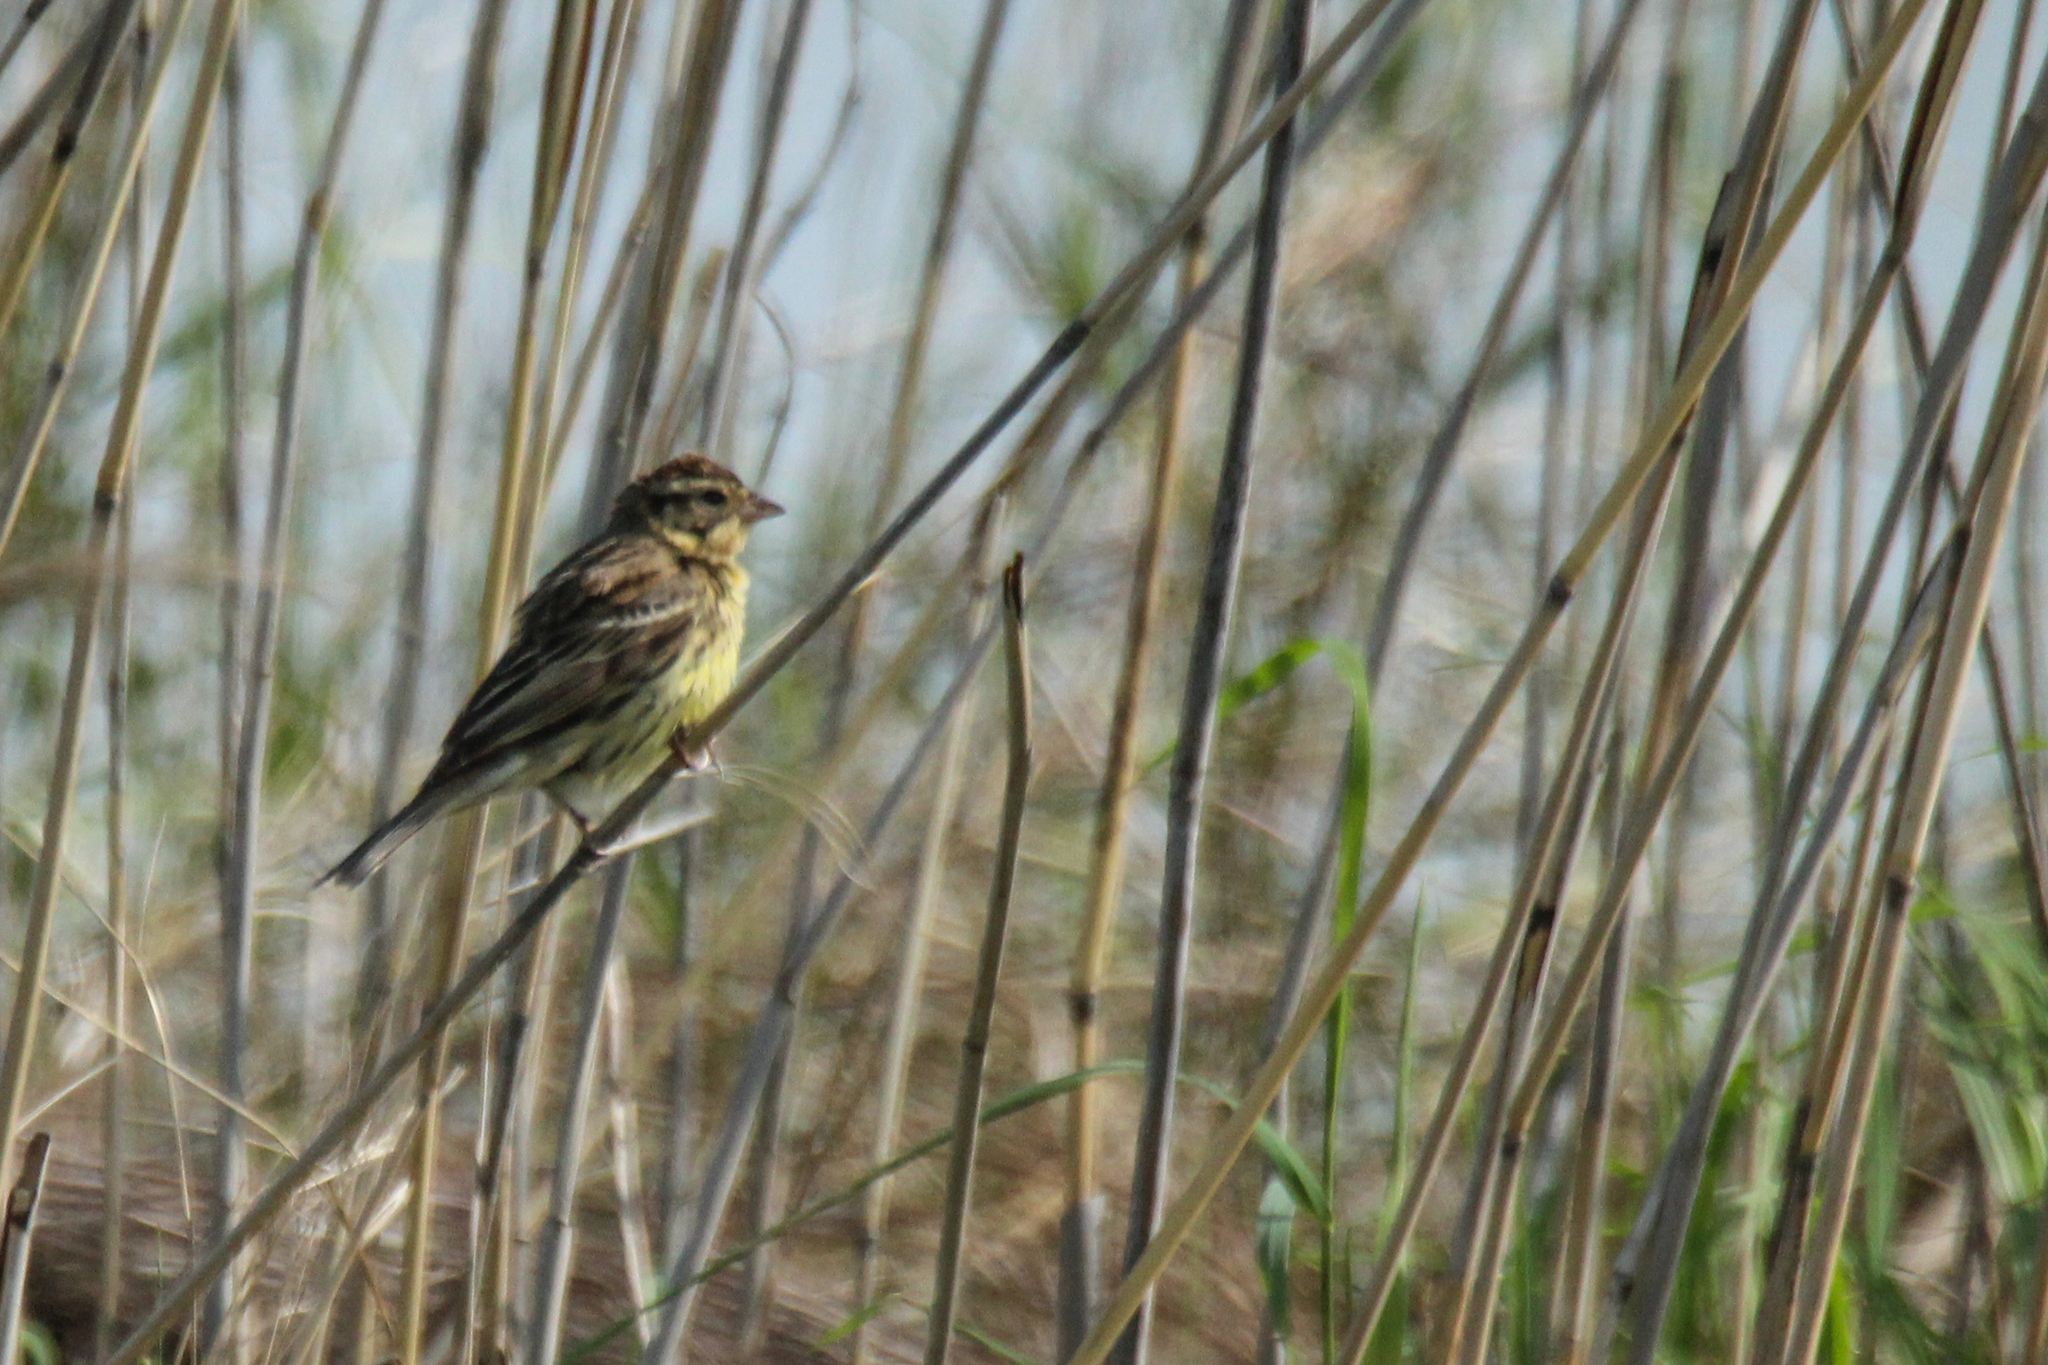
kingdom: Animalia
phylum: Chordata
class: Aves
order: Passeriformes
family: Emberizidae
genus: Emberiza
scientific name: Emberiza aureola
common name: Yellow-breasted bunting
